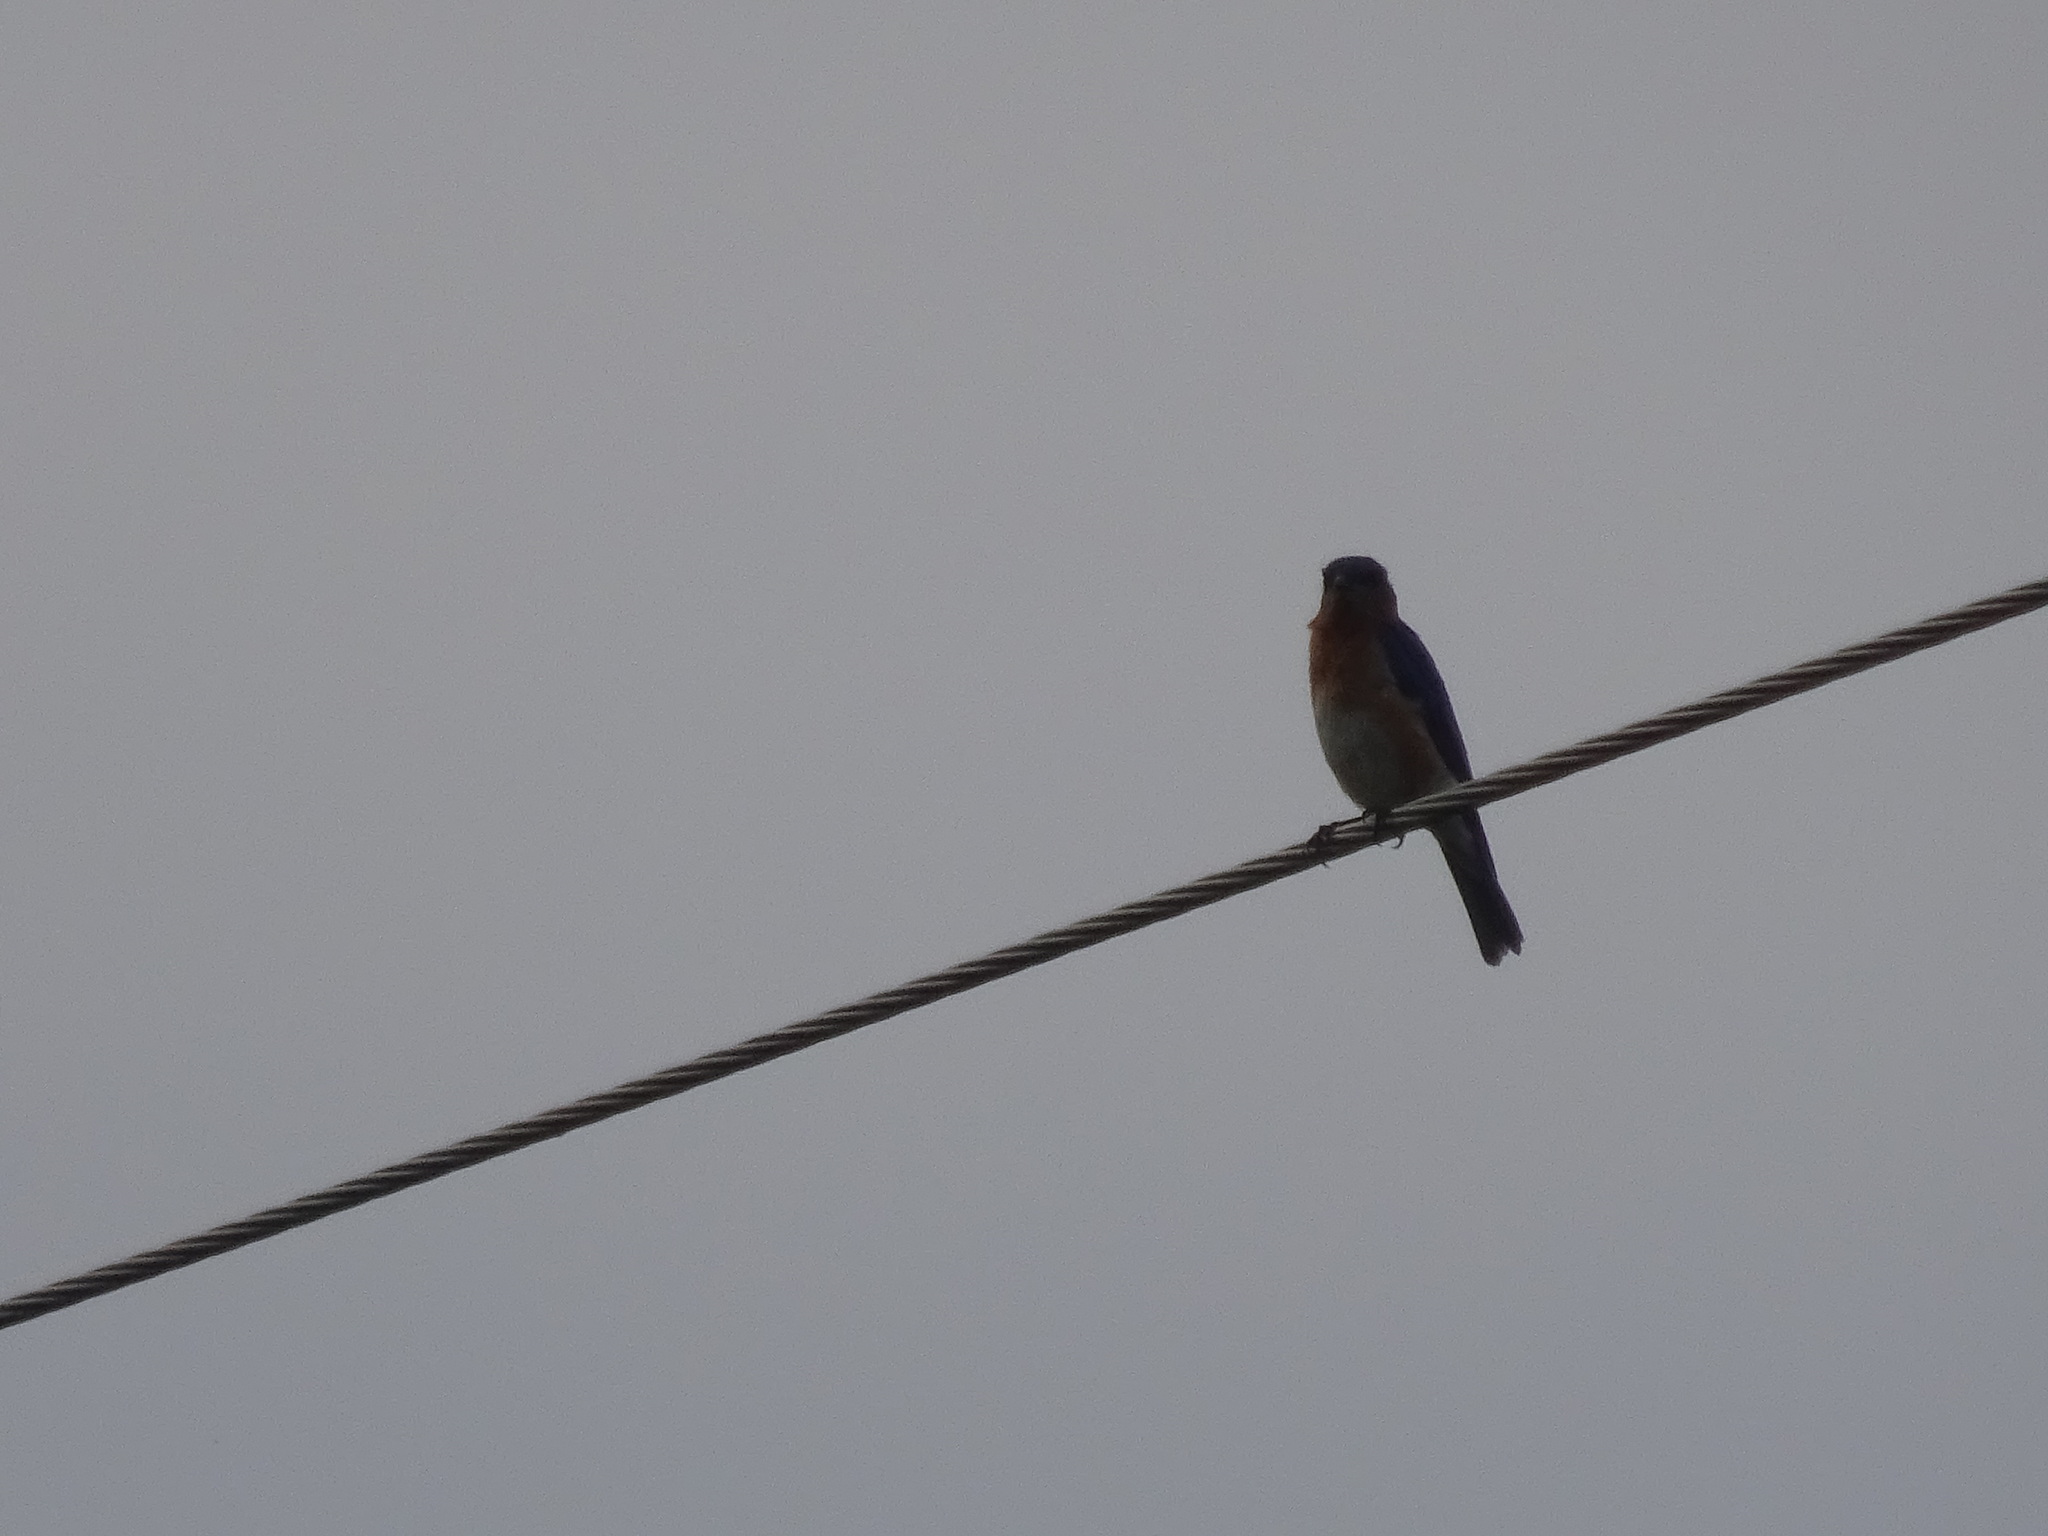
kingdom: Animalia
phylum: Chordata
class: Aves
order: Passeriformes
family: Turdidae
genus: Sialia
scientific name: Sialia sialis
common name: Eastern bluebird
